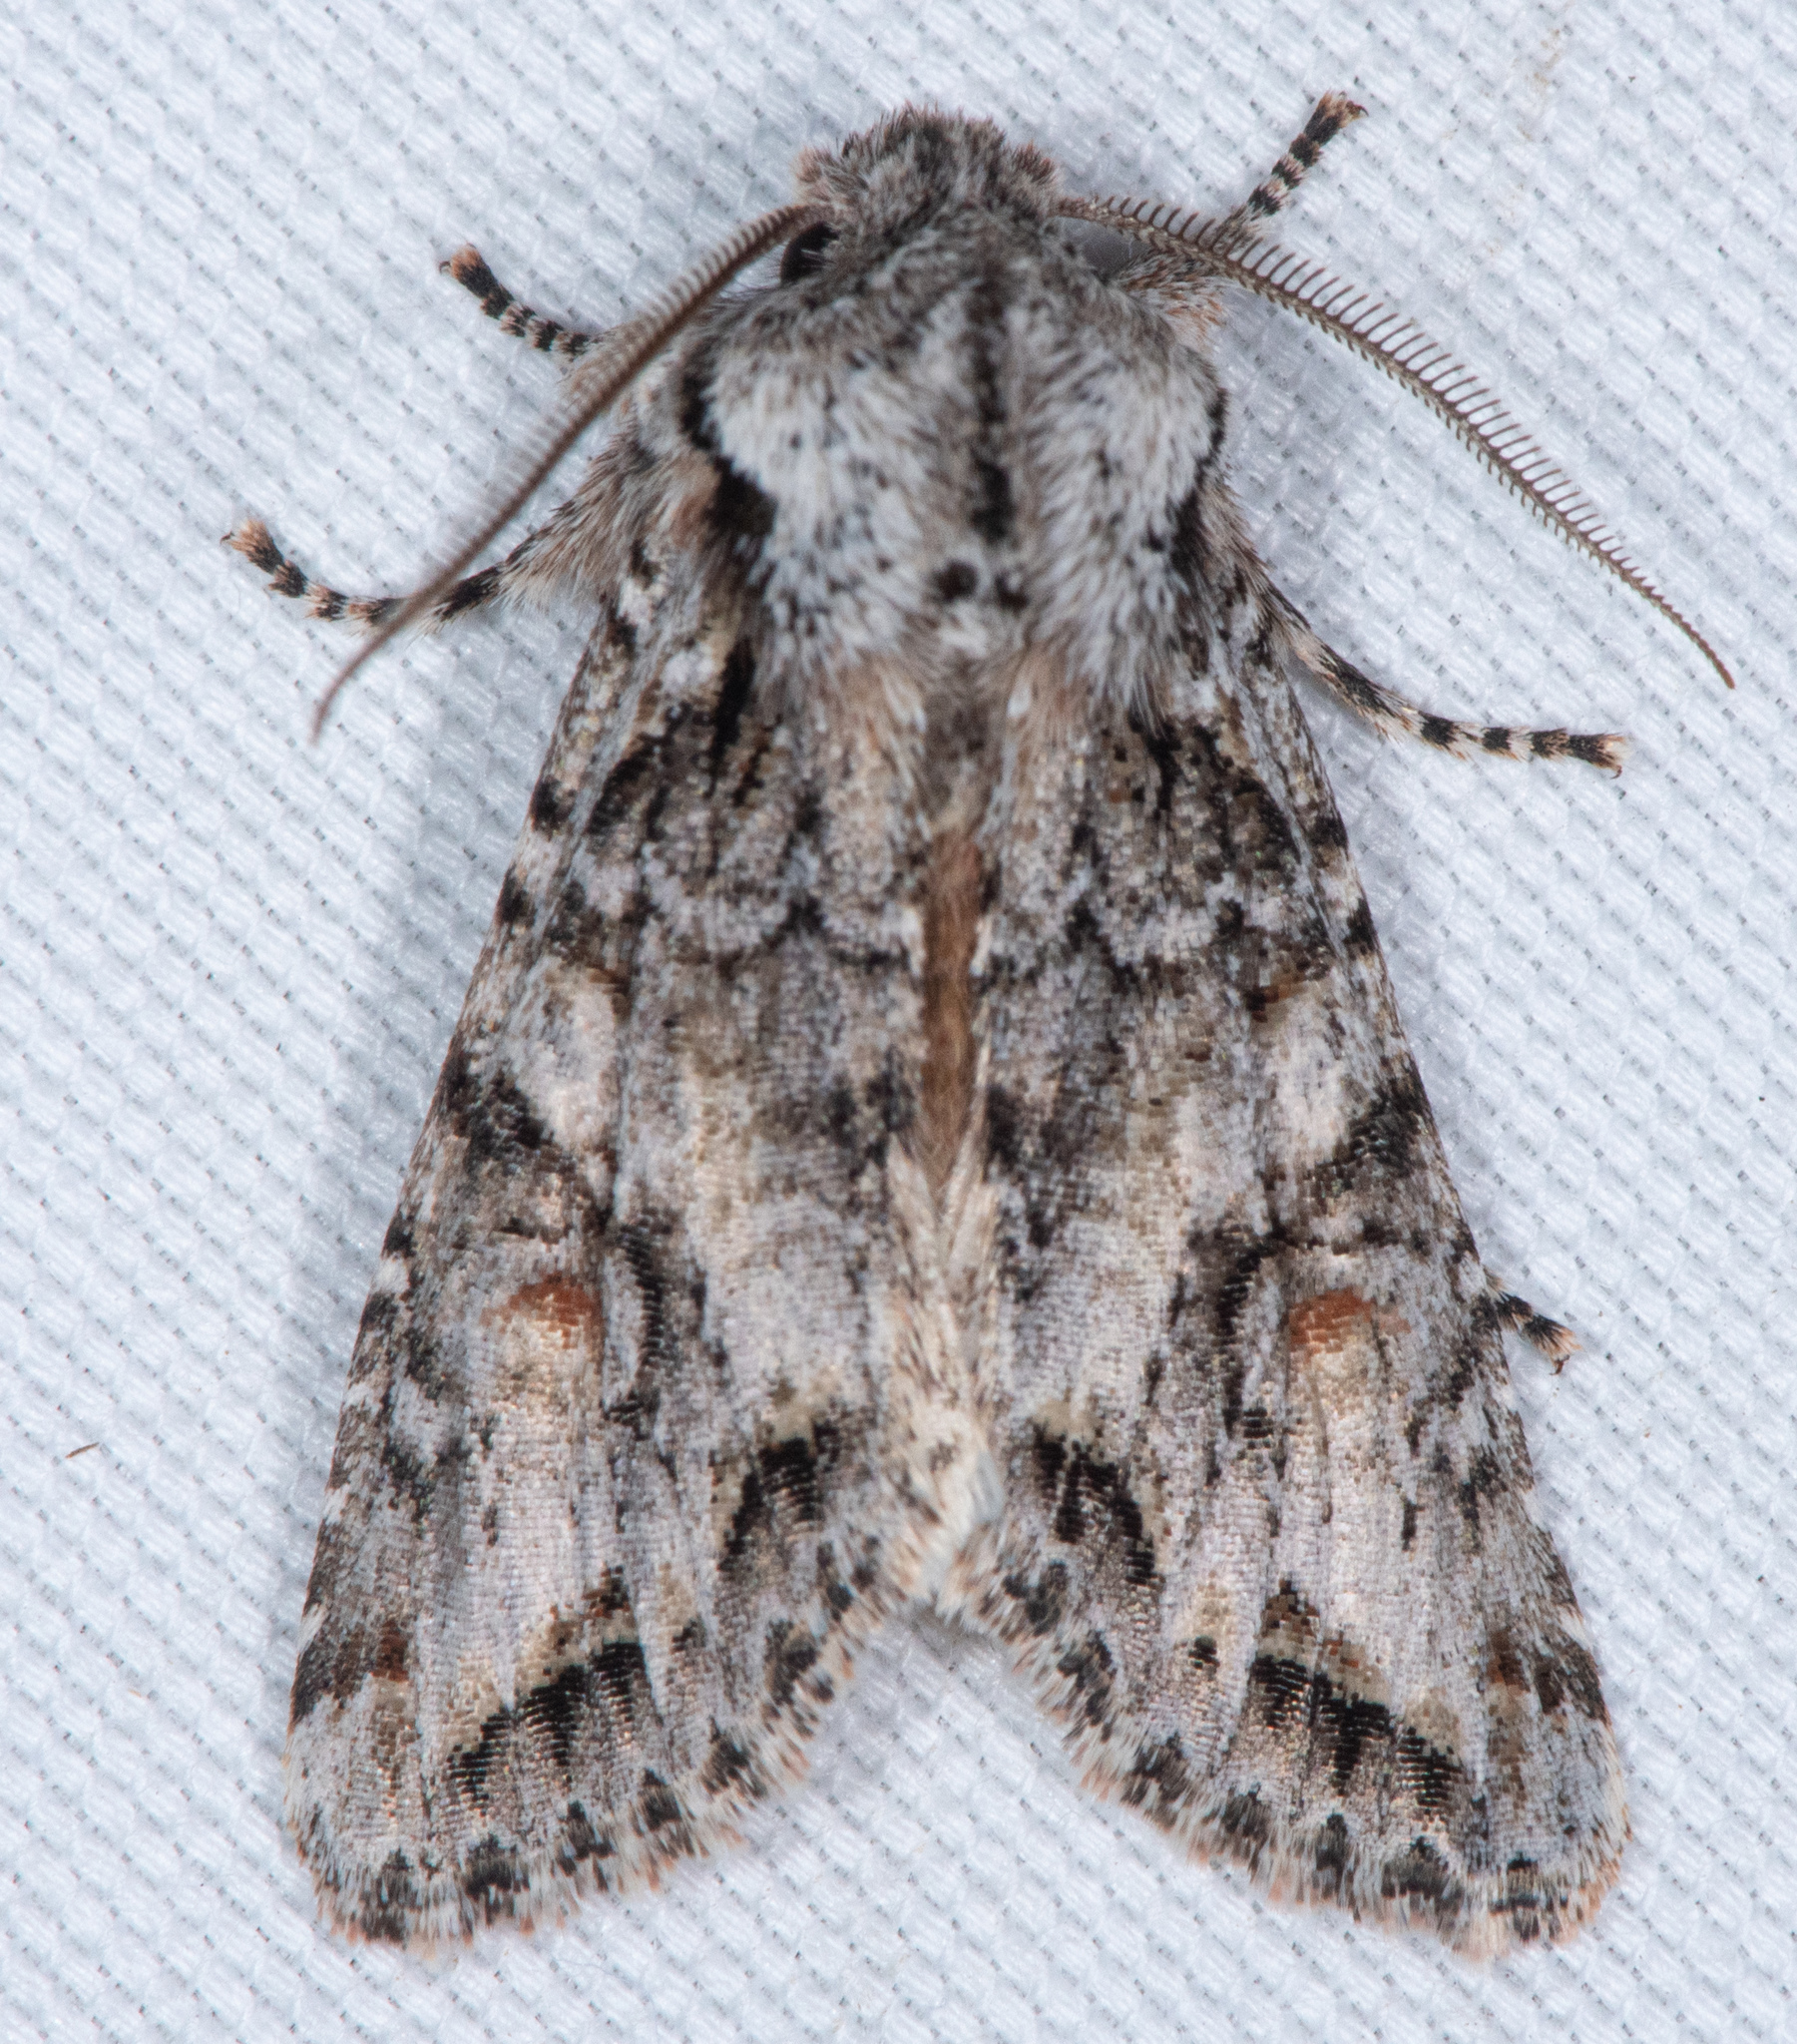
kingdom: Animalia
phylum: Arthropoda
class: Insecta
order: Lepidoptera
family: Noctuidae
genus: Egira
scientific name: Egira hiemalis
